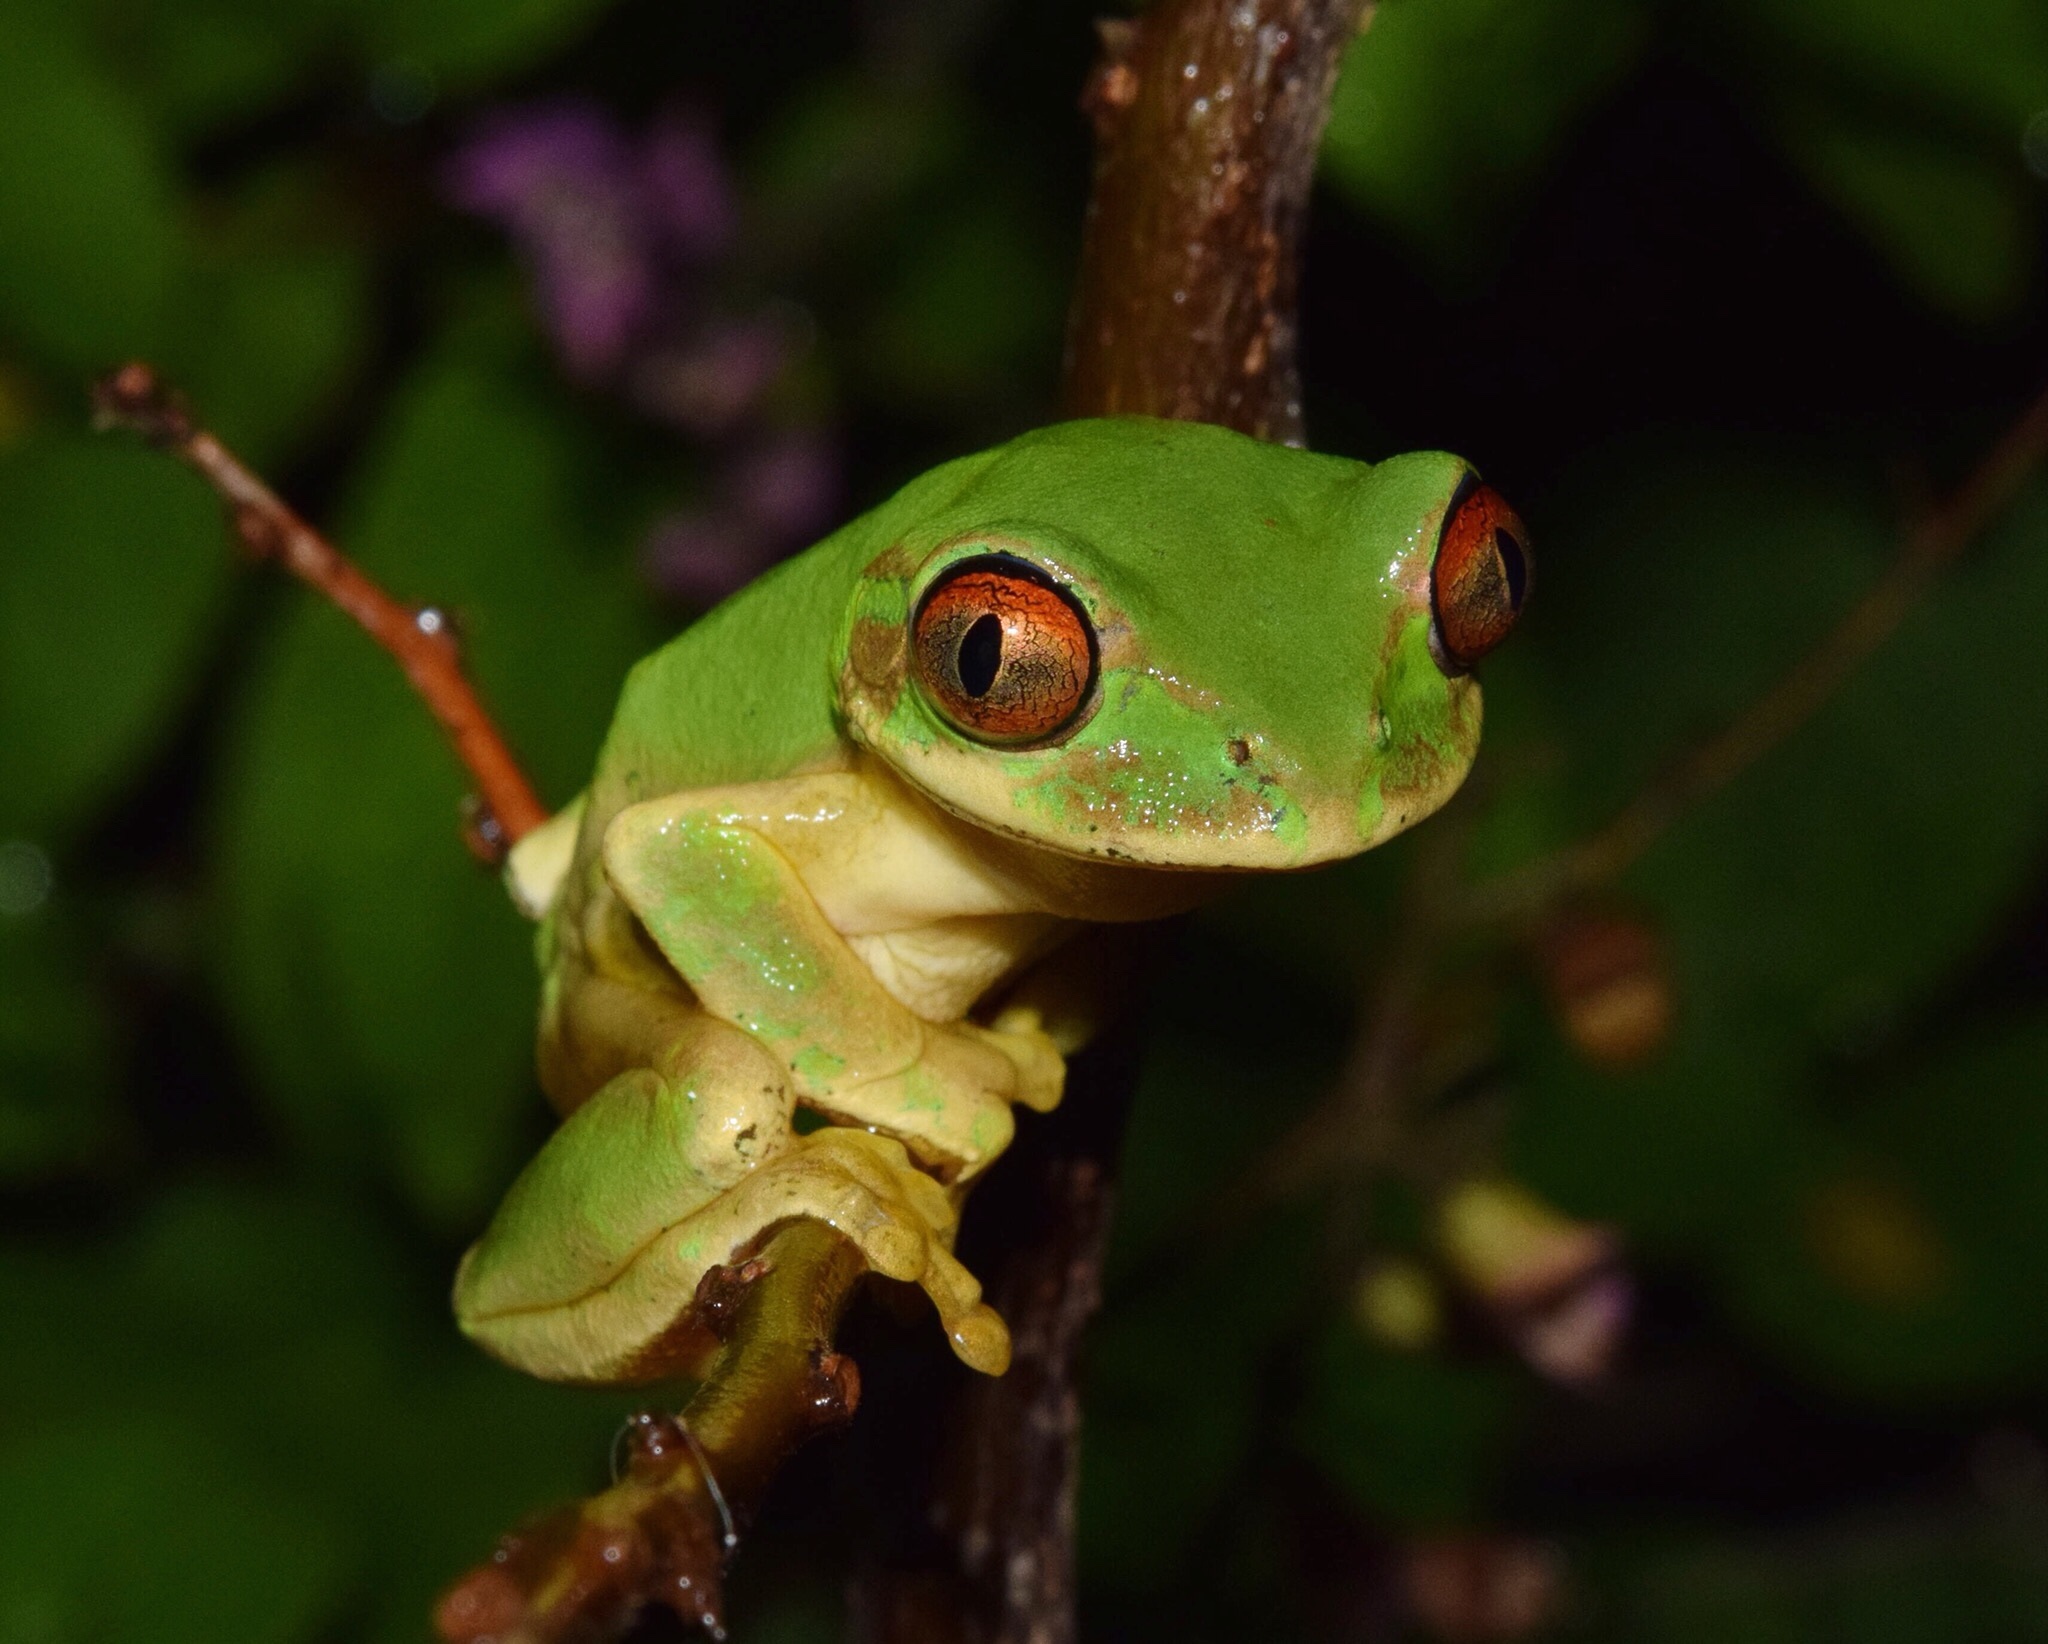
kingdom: Animalia
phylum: Chordata
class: Amphibia
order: Anura
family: Arthroleptidae
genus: Leptopelis
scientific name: Leptopelis natalensis
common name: Natal tree frog
